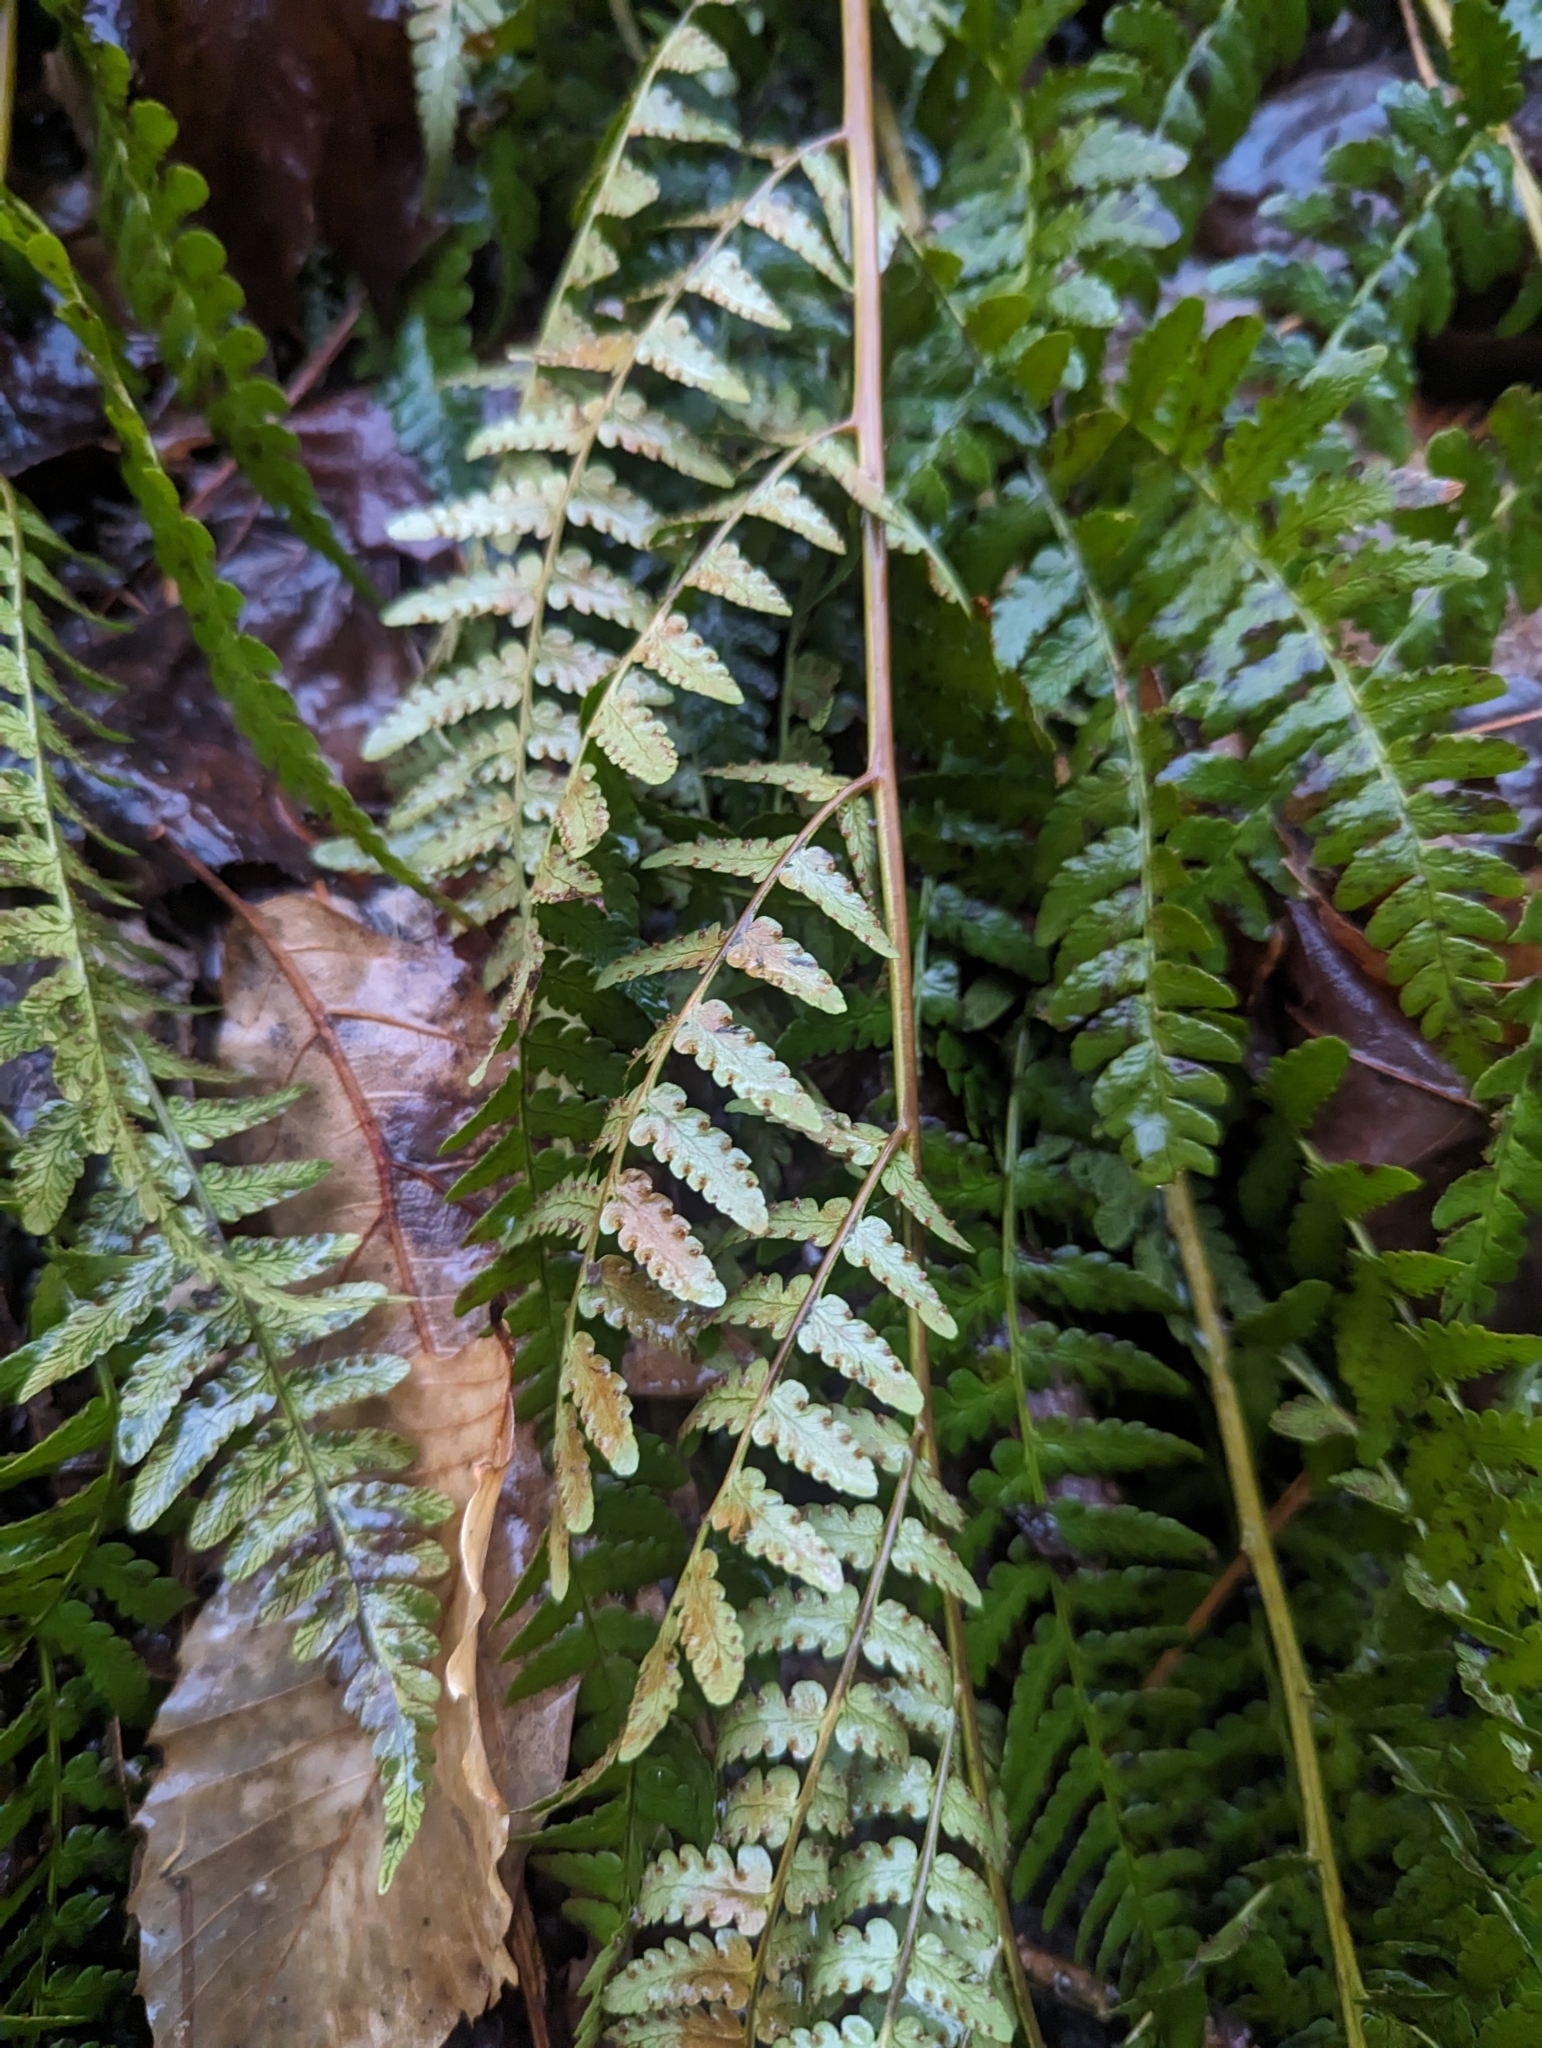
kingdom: Plantae
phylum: Tracheophyta
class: Polypodiopsida
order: Polypodiales
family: Dryopteridaceae
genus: Dryopteris
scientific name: Dryopteris marginalis
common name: Marginal wood fern
